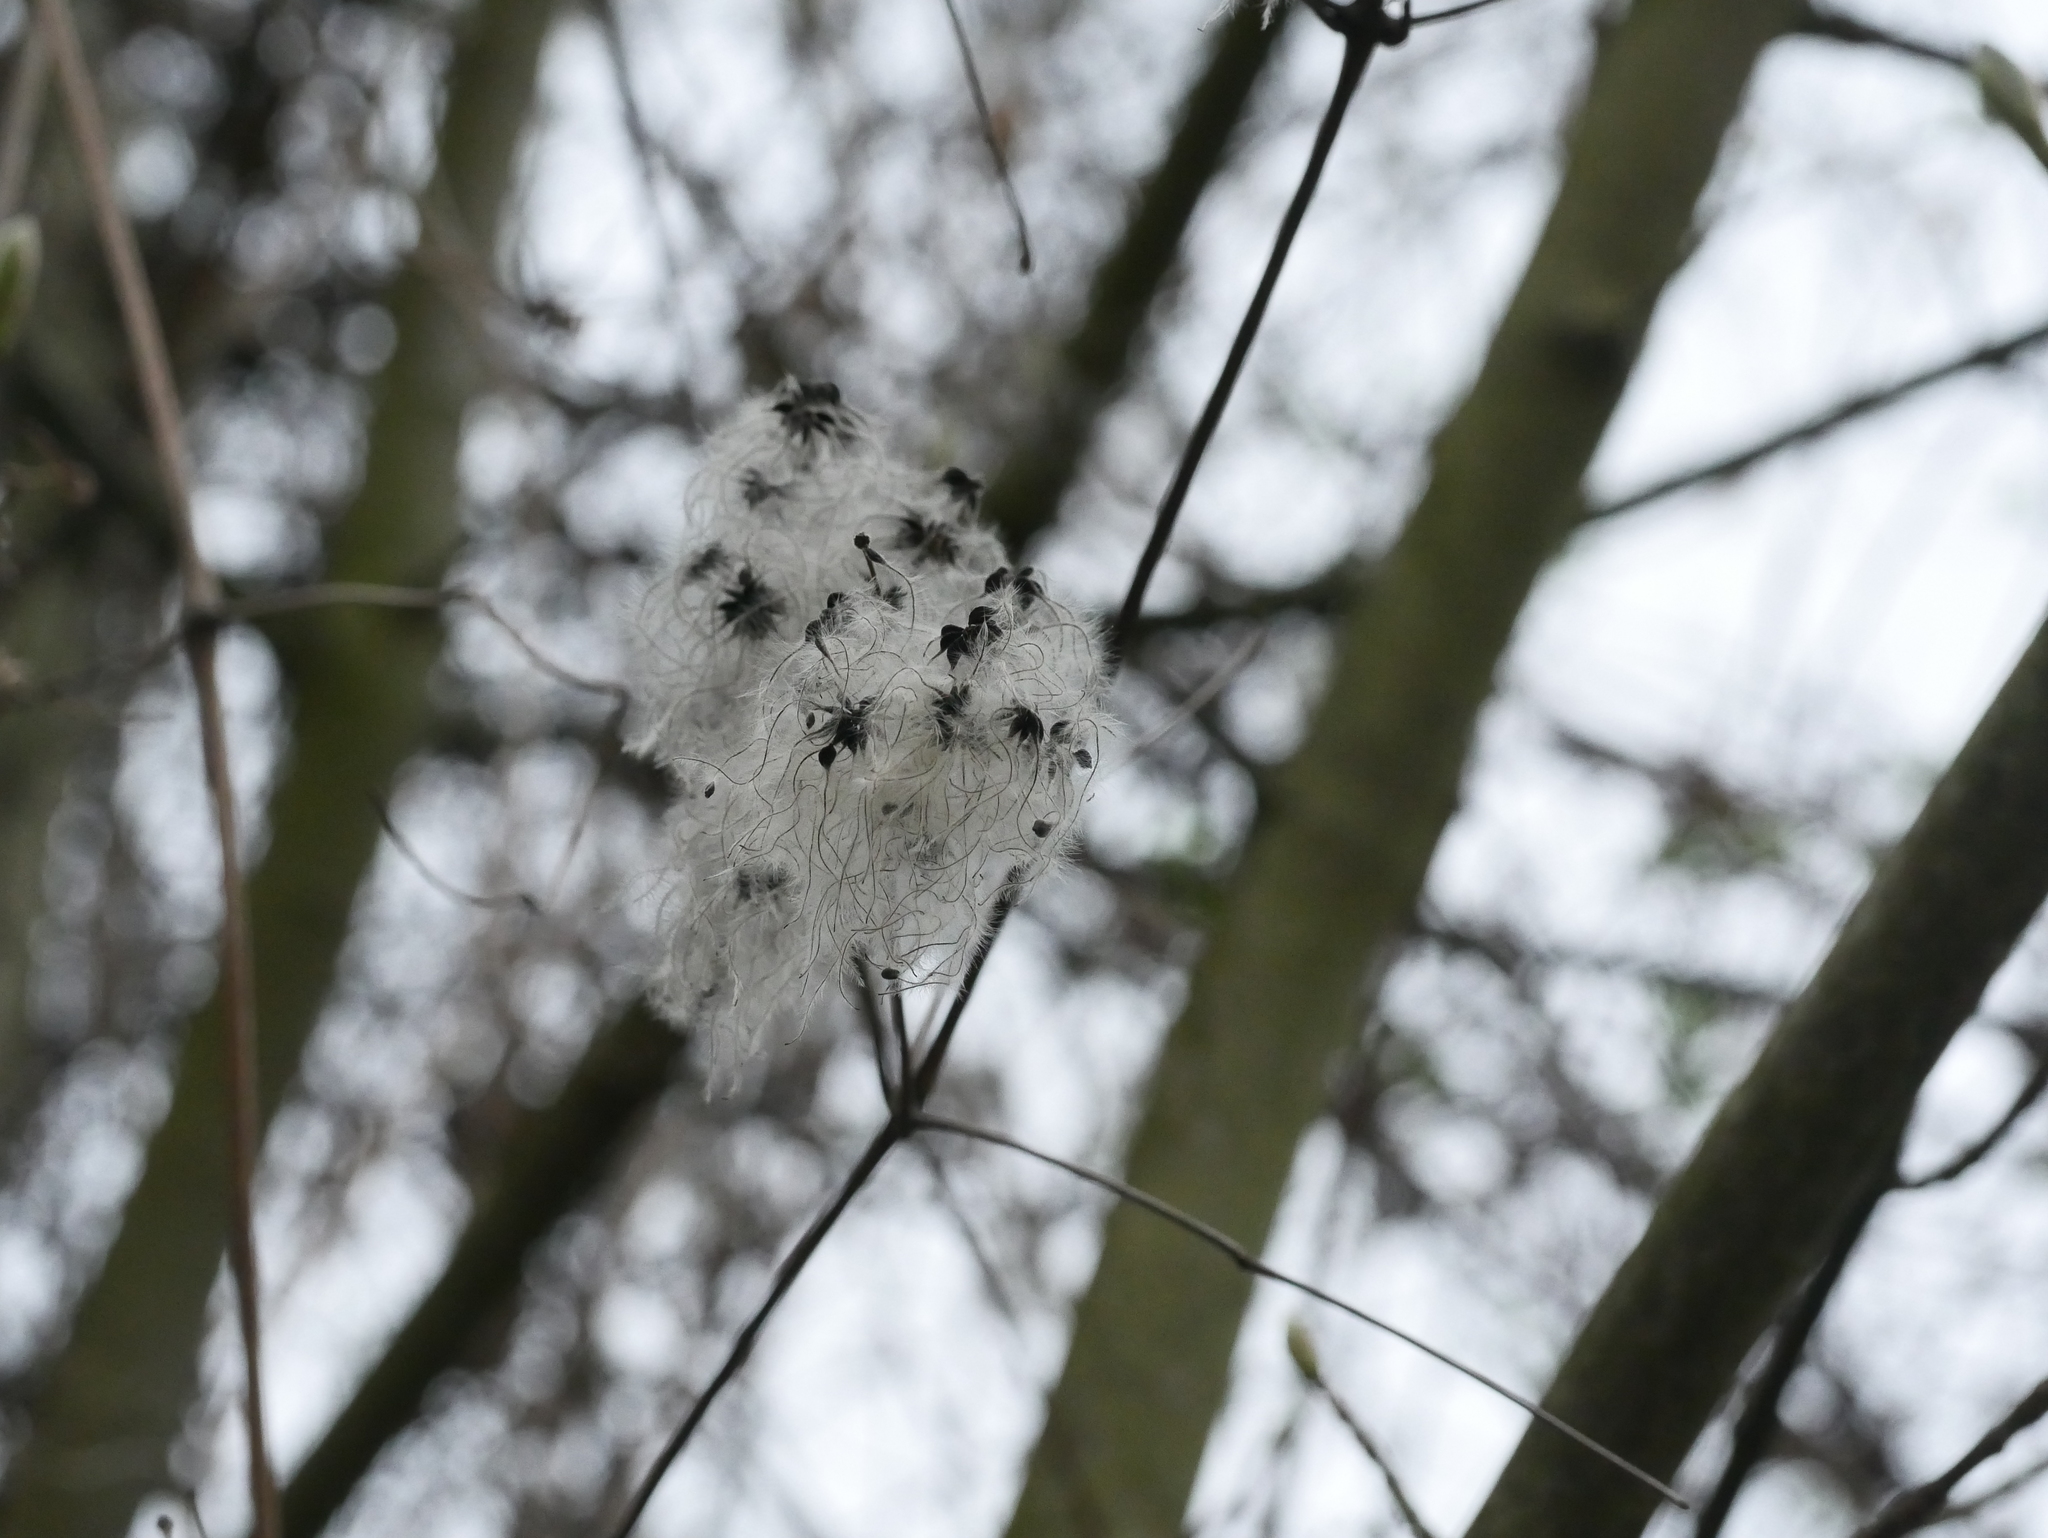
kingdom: Plantae
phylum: Tracheophyta
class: Magnoliopsida
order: Ranunculales
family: Ranunculaceae
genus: Clematis
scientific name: Clematis vitalba
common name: Evergreen clematis
